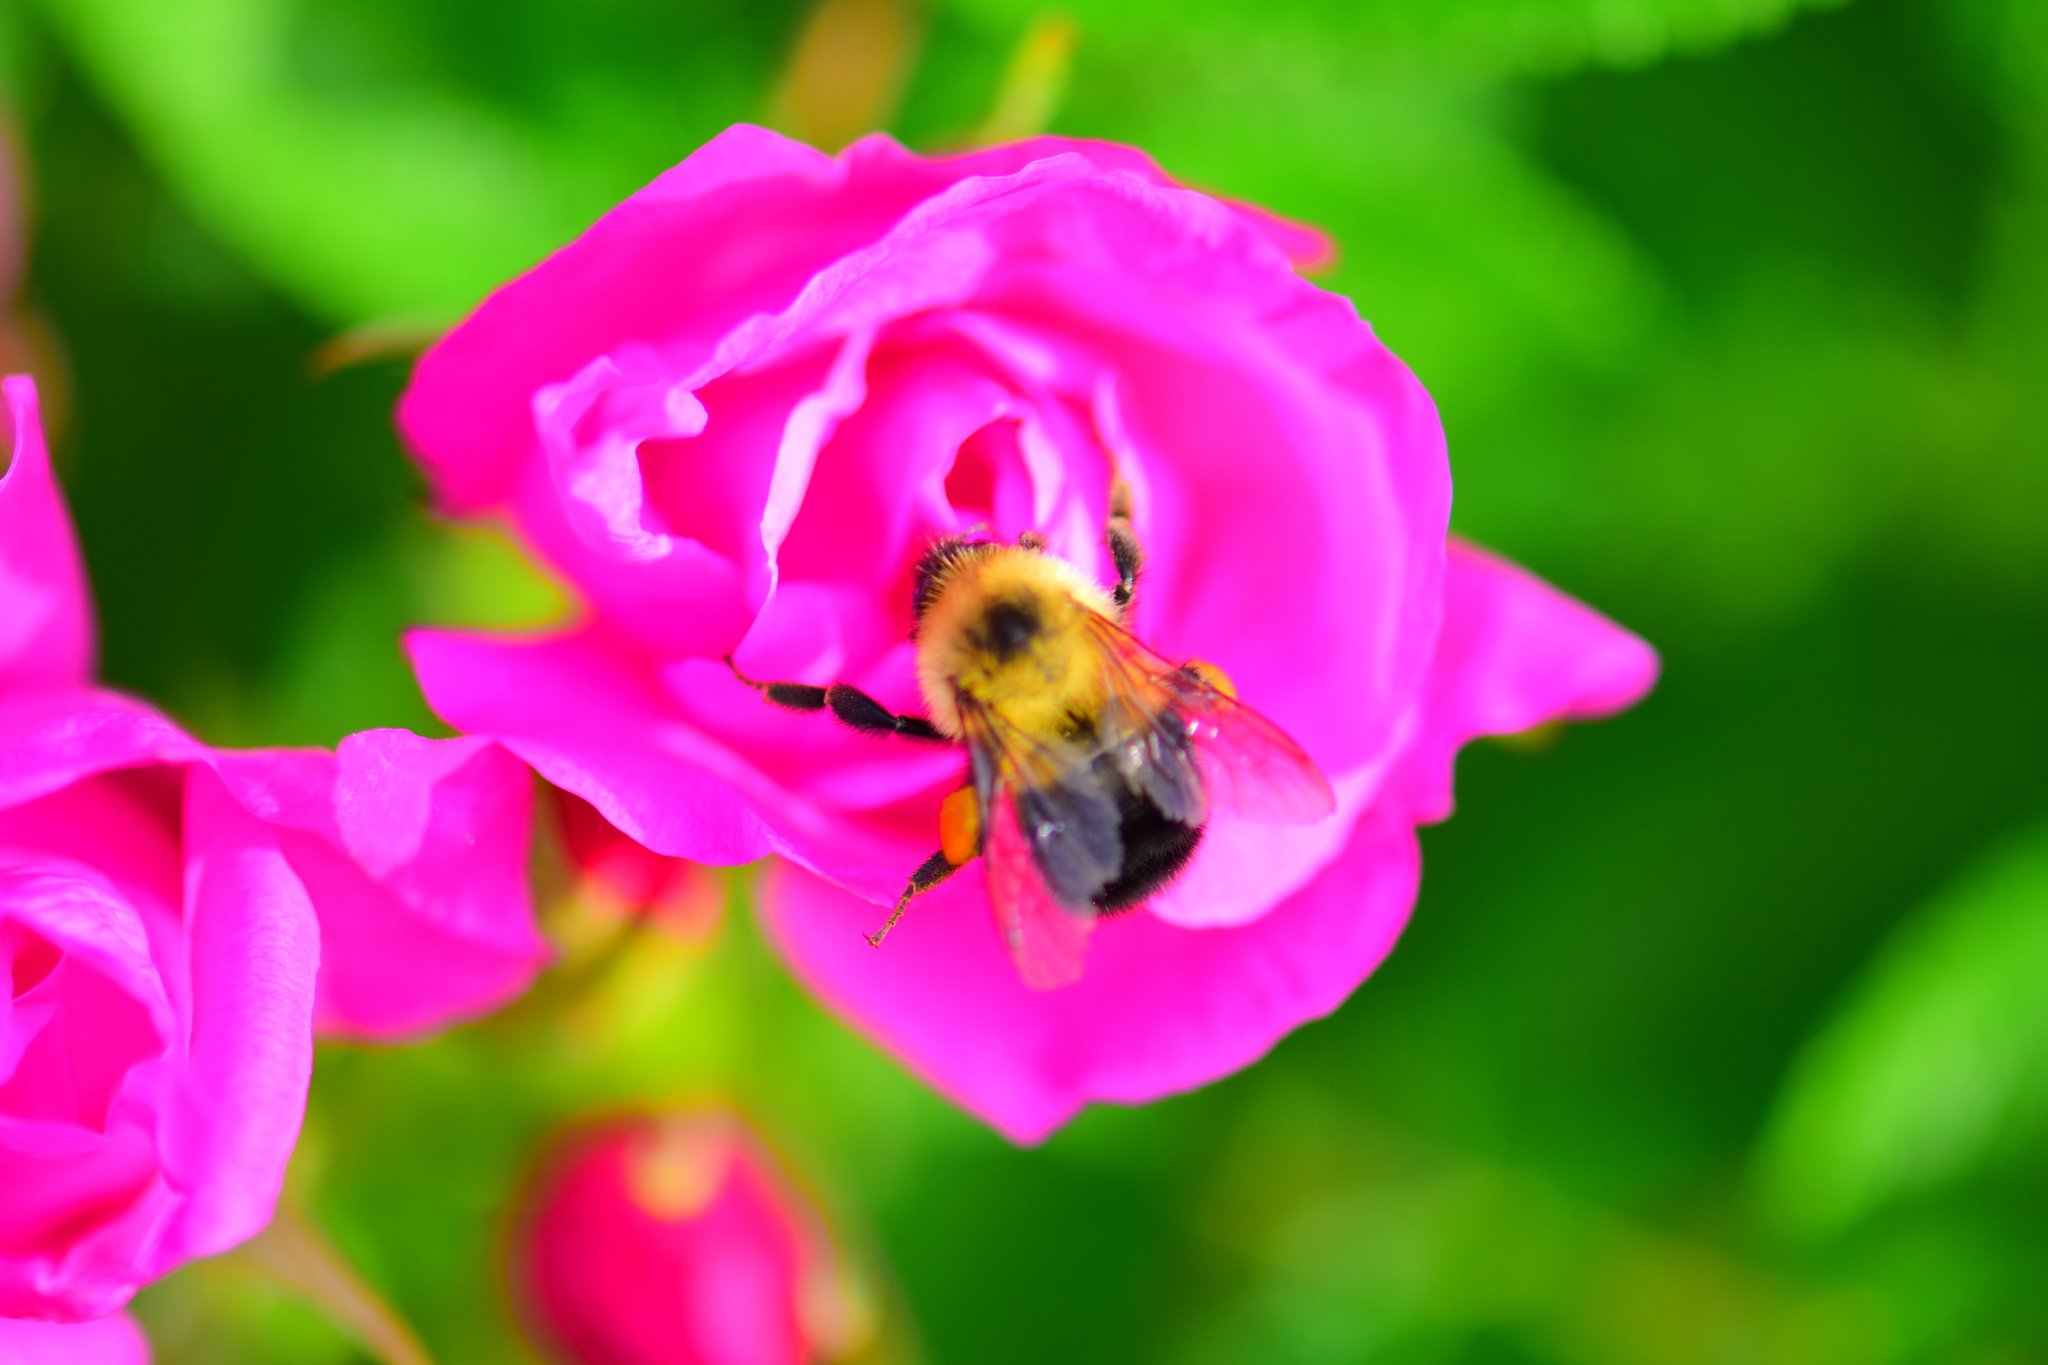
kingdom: Animalia
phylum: Arthropoda
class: Insecta
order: Hymenoptera
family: Apidae
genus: Bombus
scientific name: Bombus bimaculatus
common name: Two-spotted bumble bee
